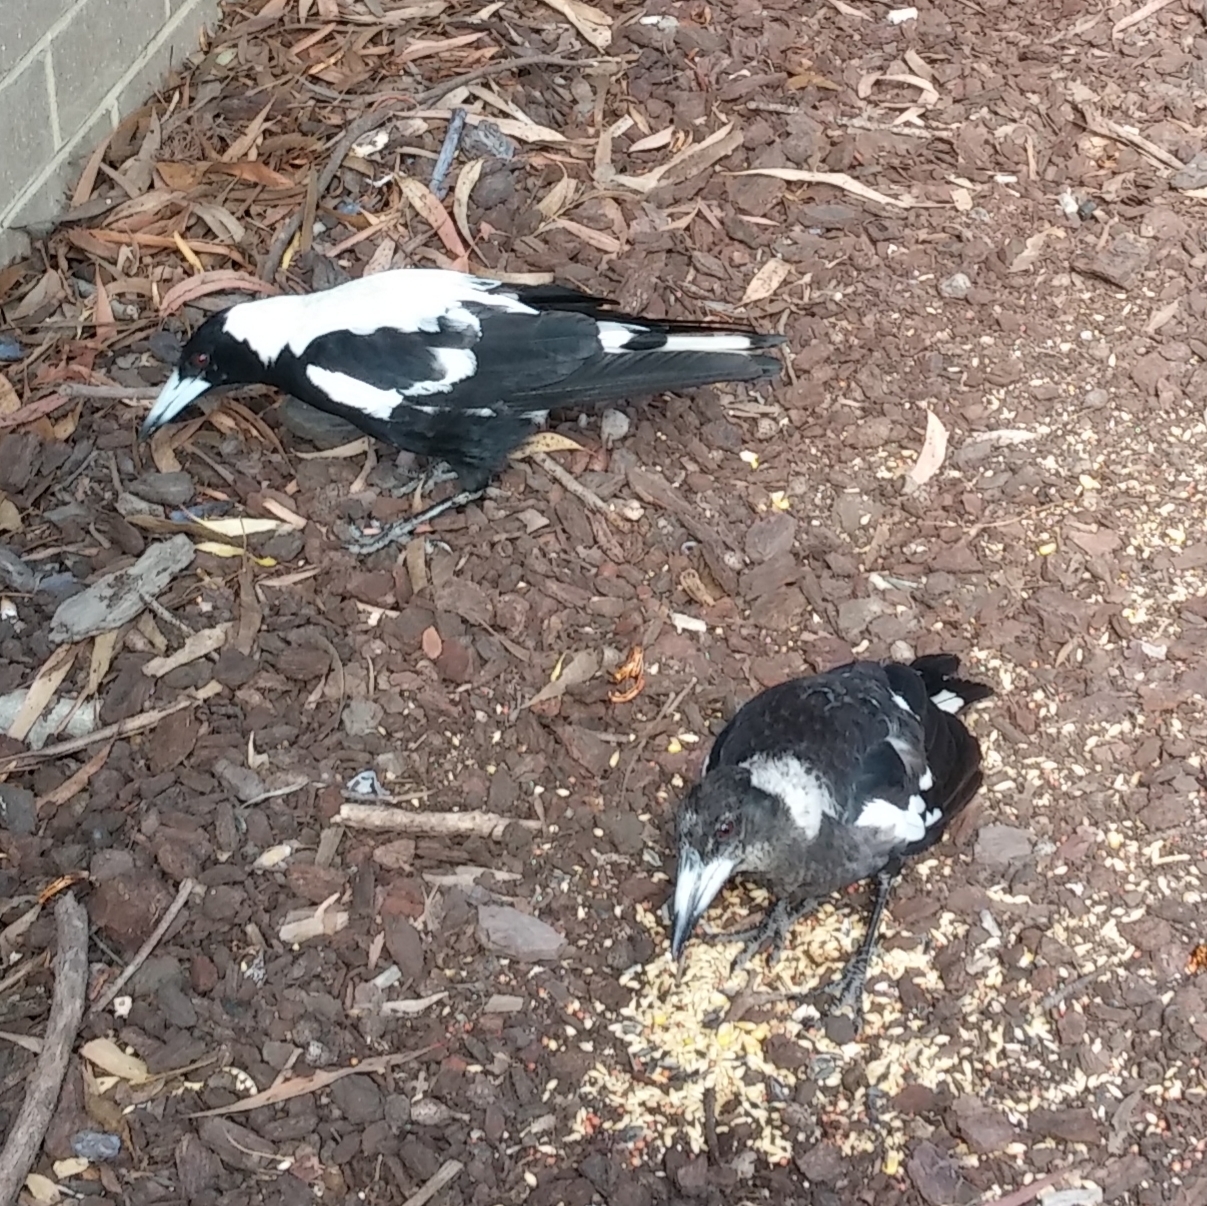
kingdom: Animalia
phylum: Chordata
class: Aves
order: Passeriformes
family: Cracticidae
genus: Gymnorhina
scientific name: Gymnorhina tibicen
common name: Australian magpie
